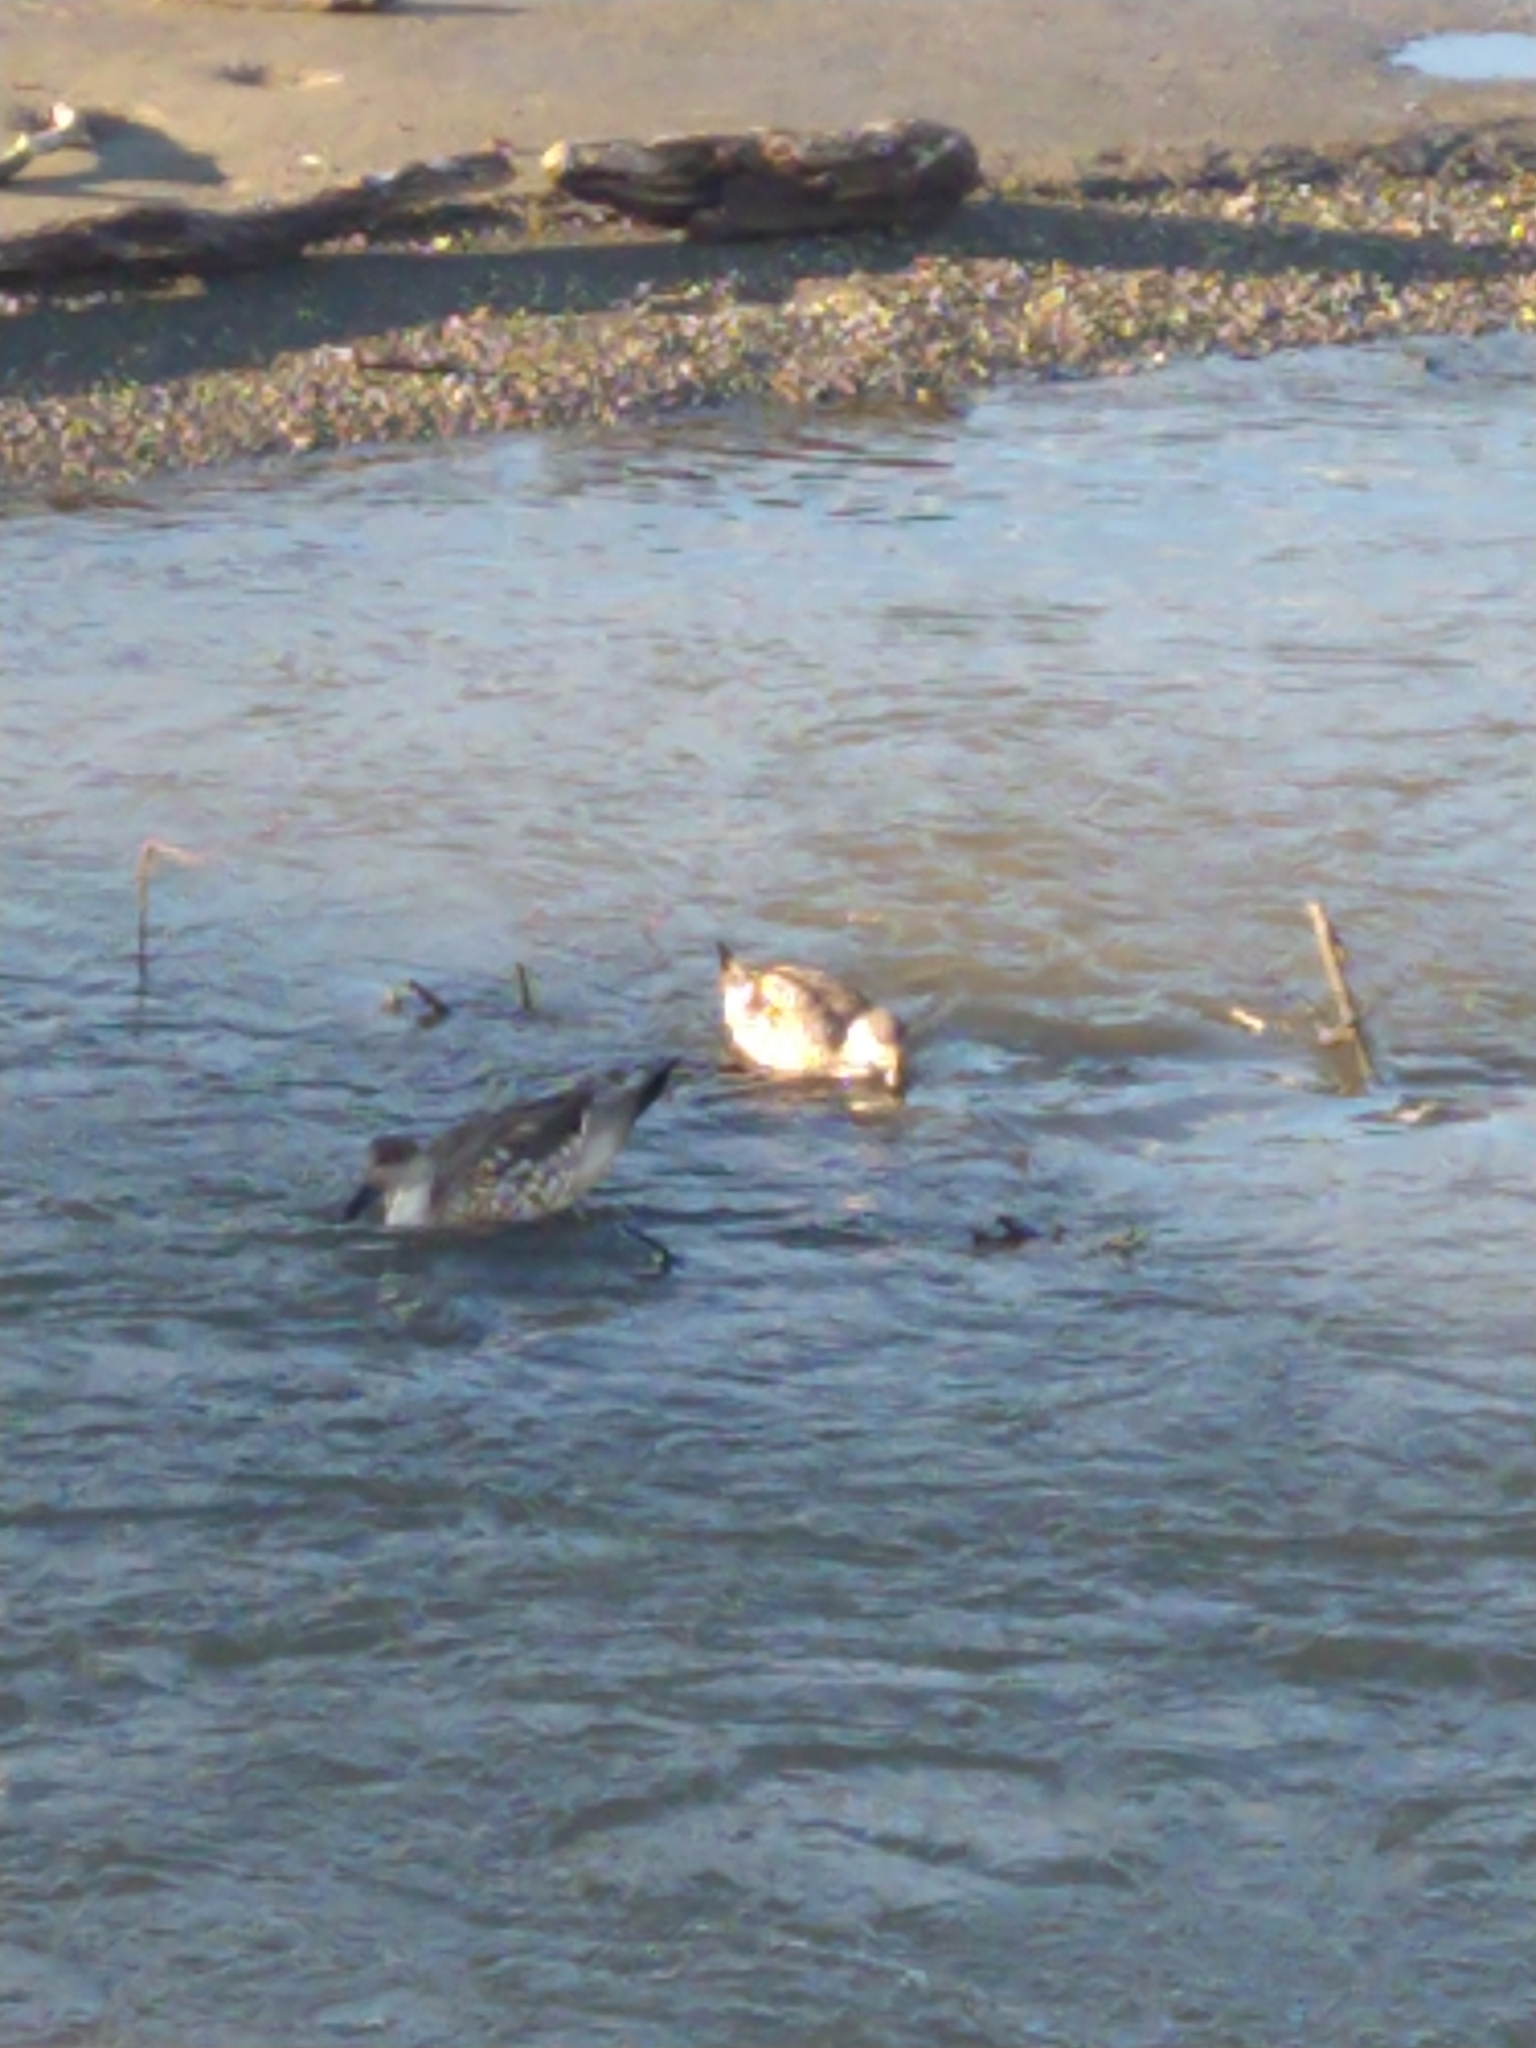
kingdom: Animalia
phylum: Chordata
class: Aves
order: Anseriformes
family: Anatidae
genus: Lophonetta
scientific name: Lophonetta specularioides
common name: Crested duck
